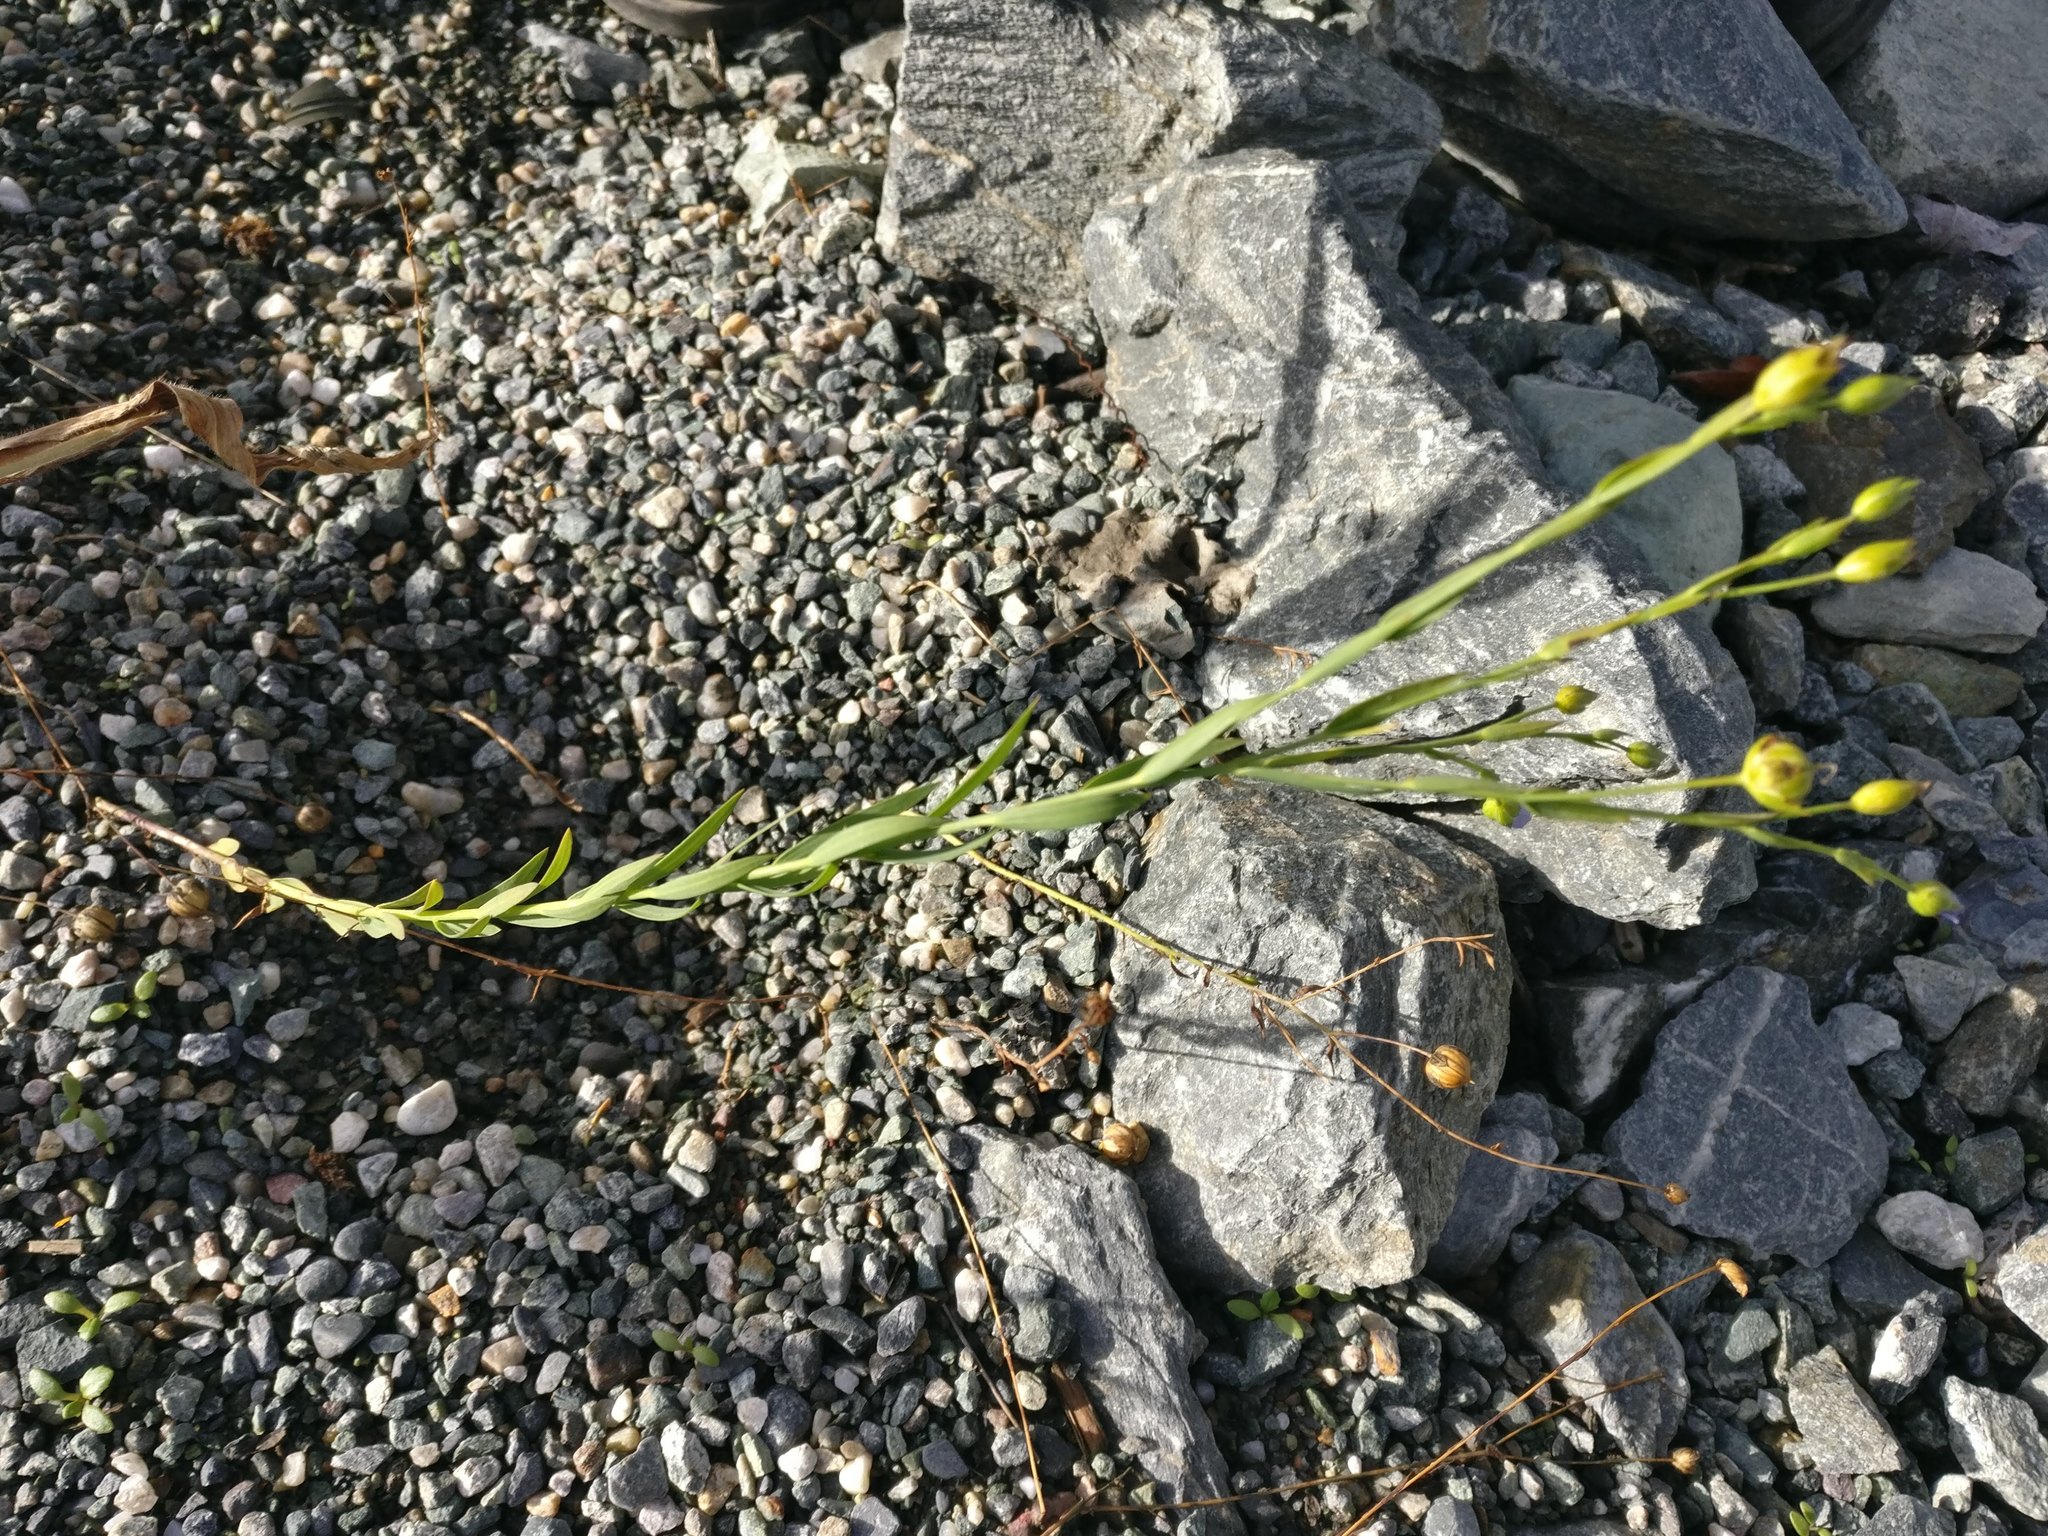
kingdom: Plantae
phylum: Tracheophyta
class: Magnoliopsida
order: Malpighiales
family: Linaceae
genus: Linum
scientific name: Linum usitatissimum
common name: Flax
